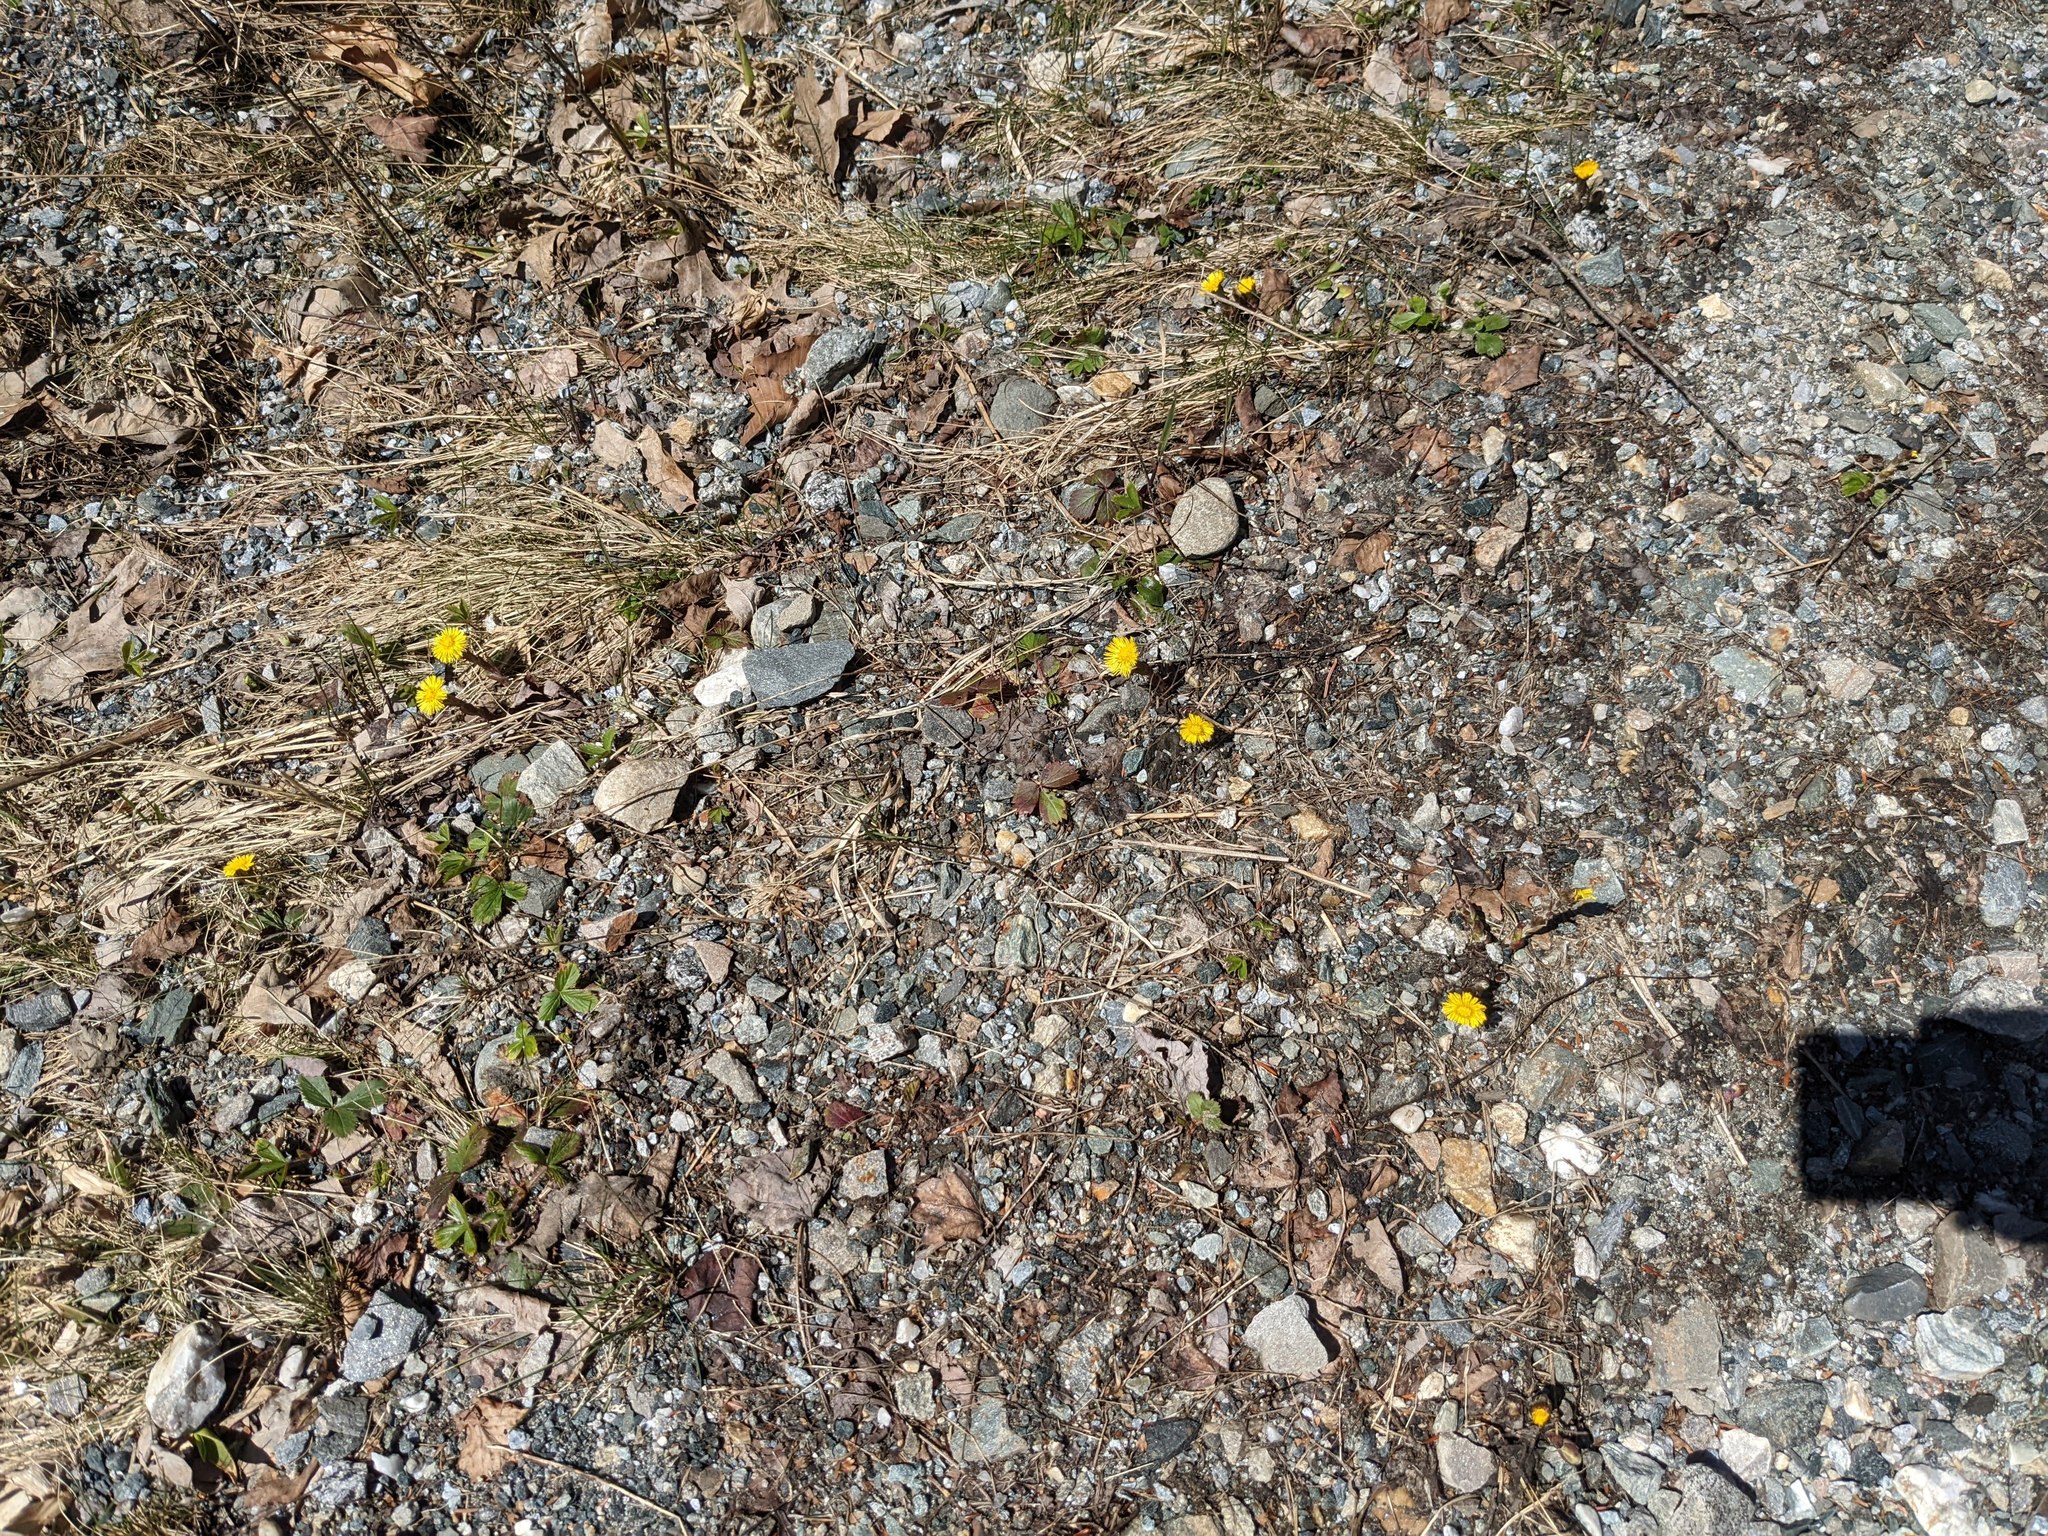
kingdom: Plantae
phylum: Tracheophyta
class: Magnoliopsida
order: Asterales
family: Asteraceae
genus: Tussilago
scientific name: Tussilago farfara
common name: Coltsfoot
